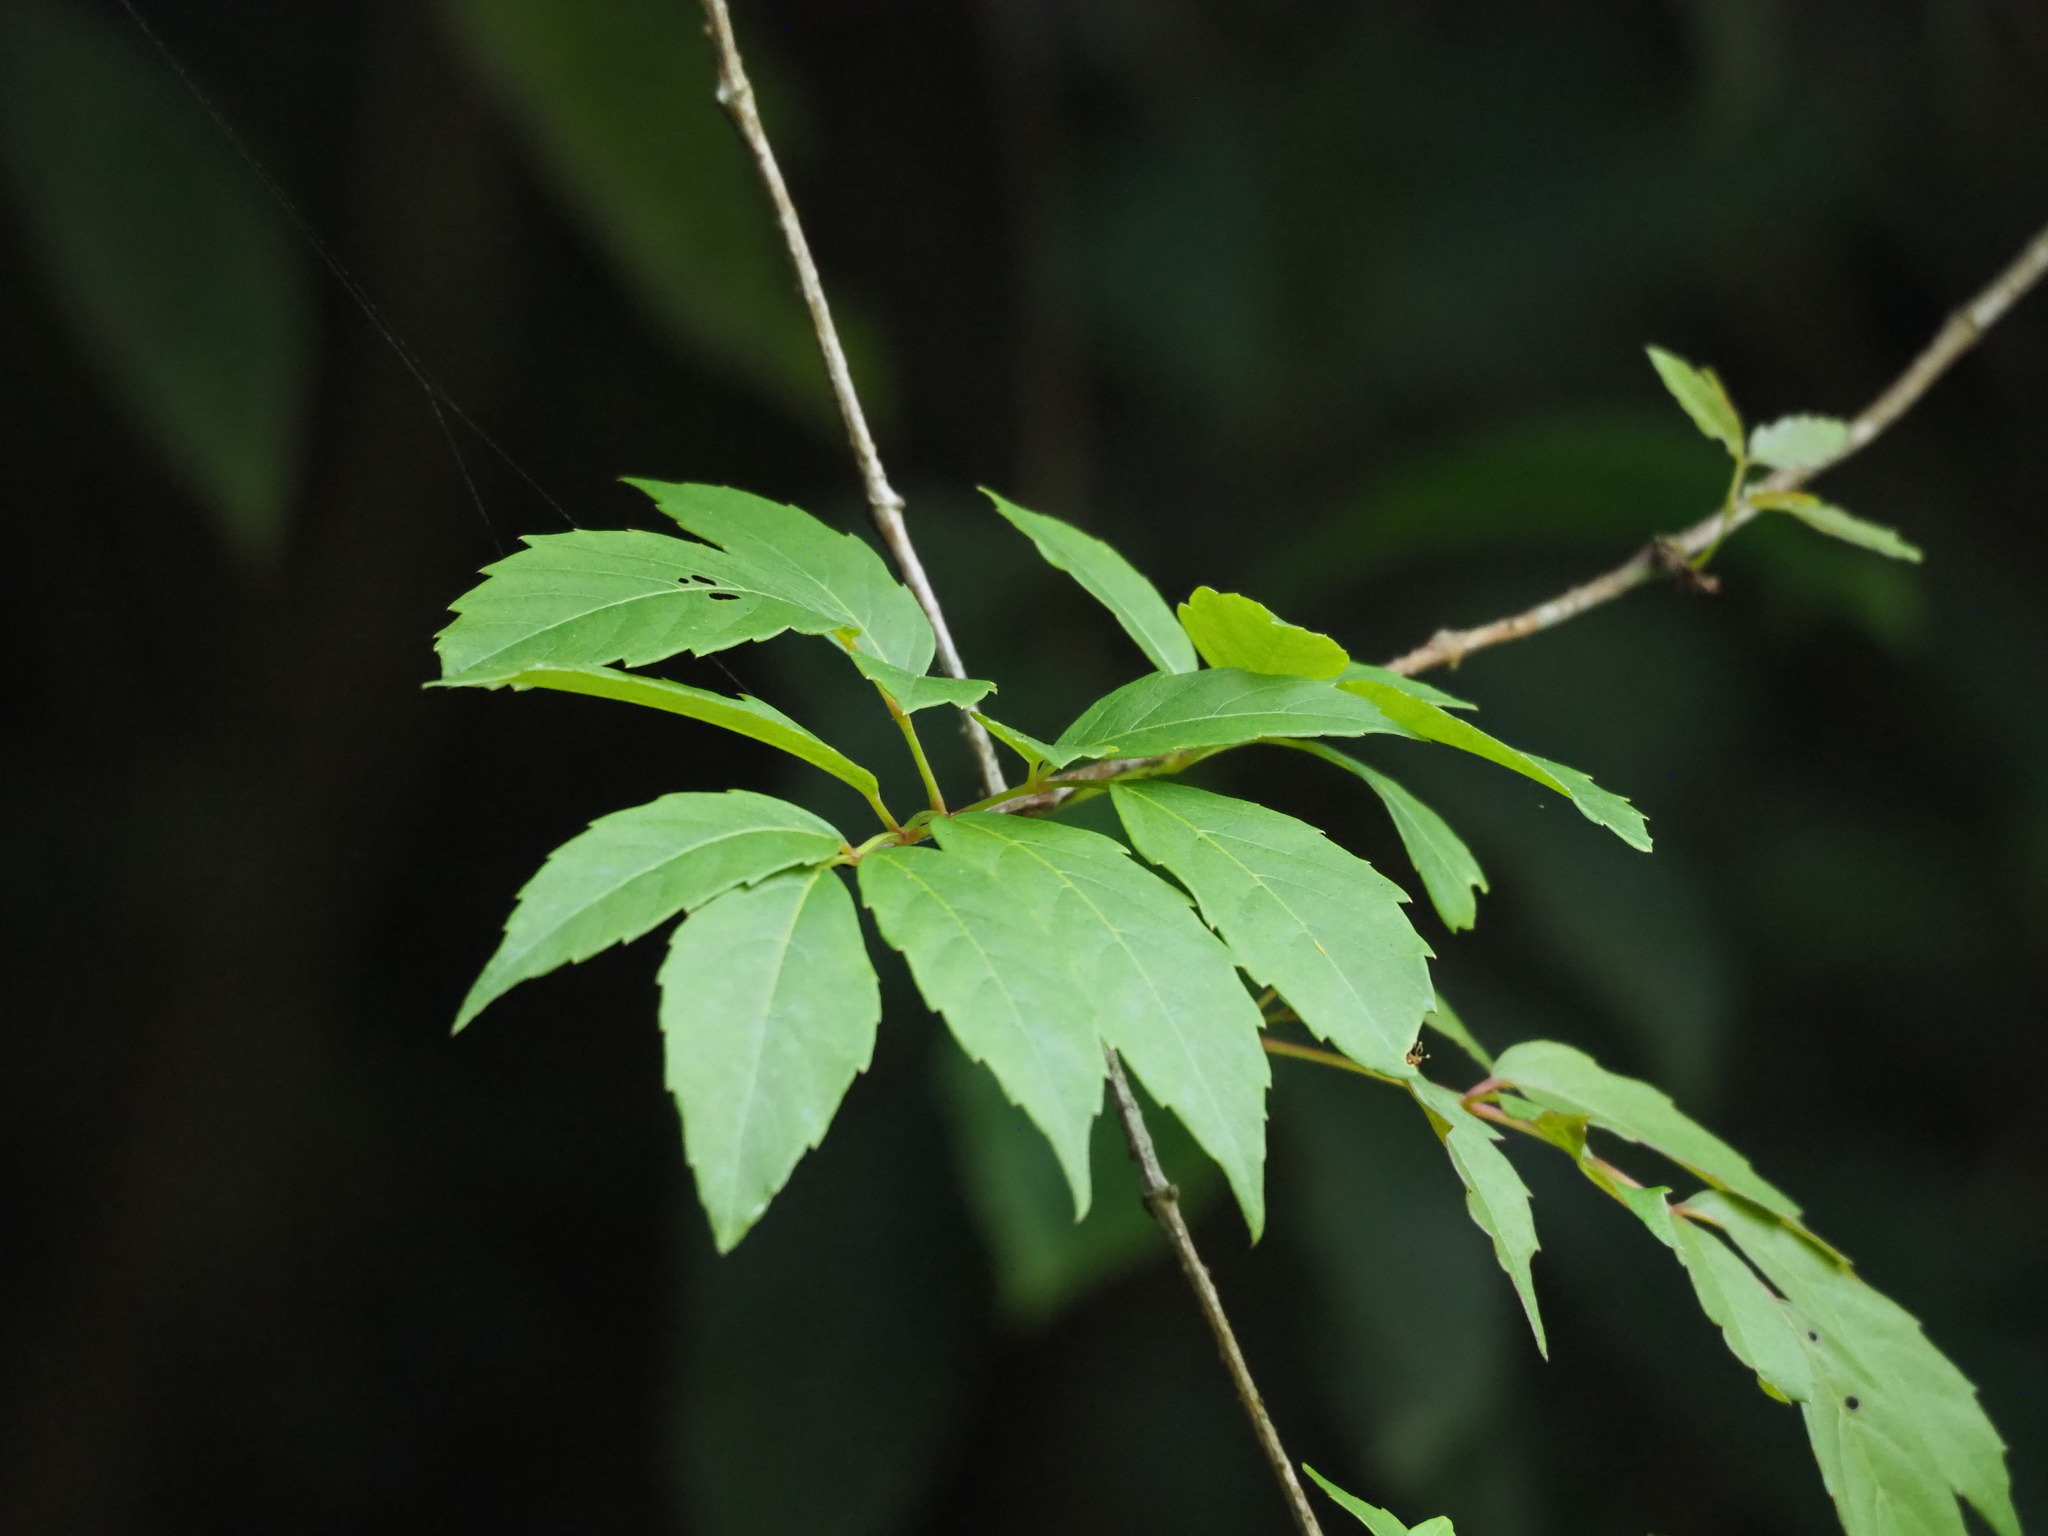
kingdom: Plantae
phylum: Tracheophyta
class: Magnoliopsida
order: Vitales
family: Vitaceae
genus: Nekemias
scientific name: Nekemias cantoniensis
